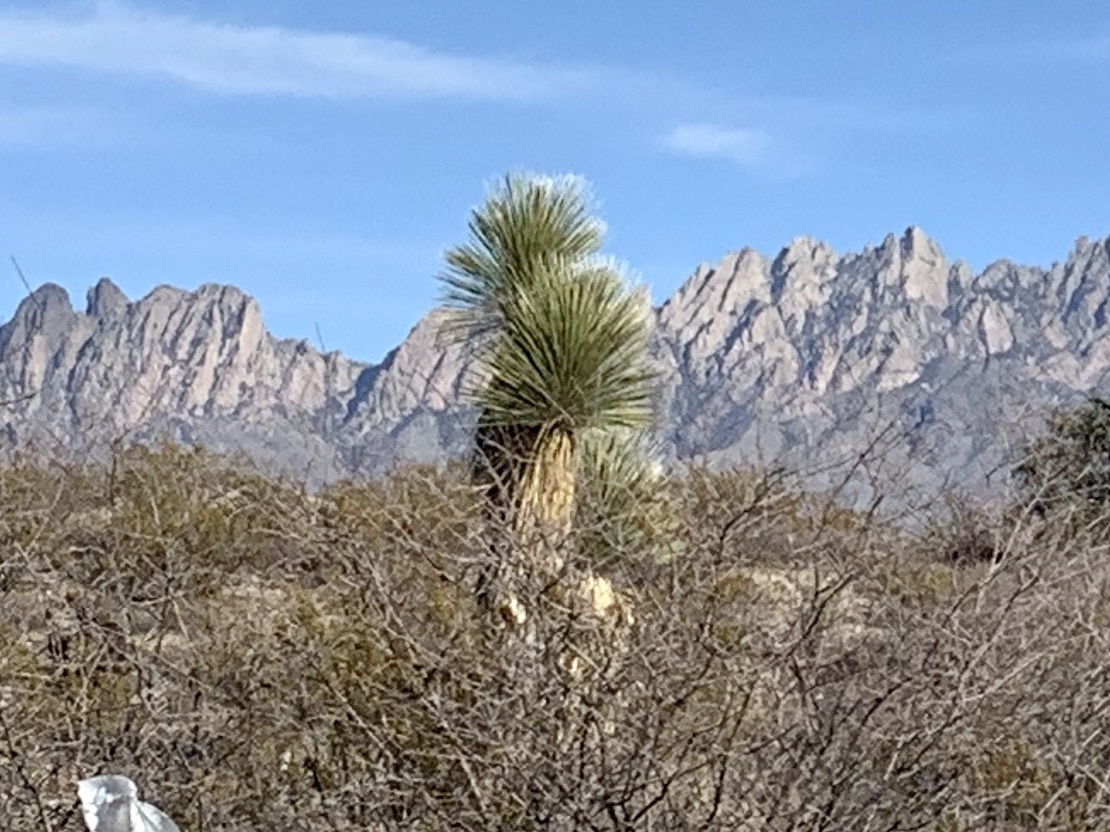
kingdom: Plantae
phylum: Tracheophyta
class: Liliopsida
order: Asparagales
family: Asparagaceae
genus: Yucca
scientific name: Yucca elata
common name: Palmella
